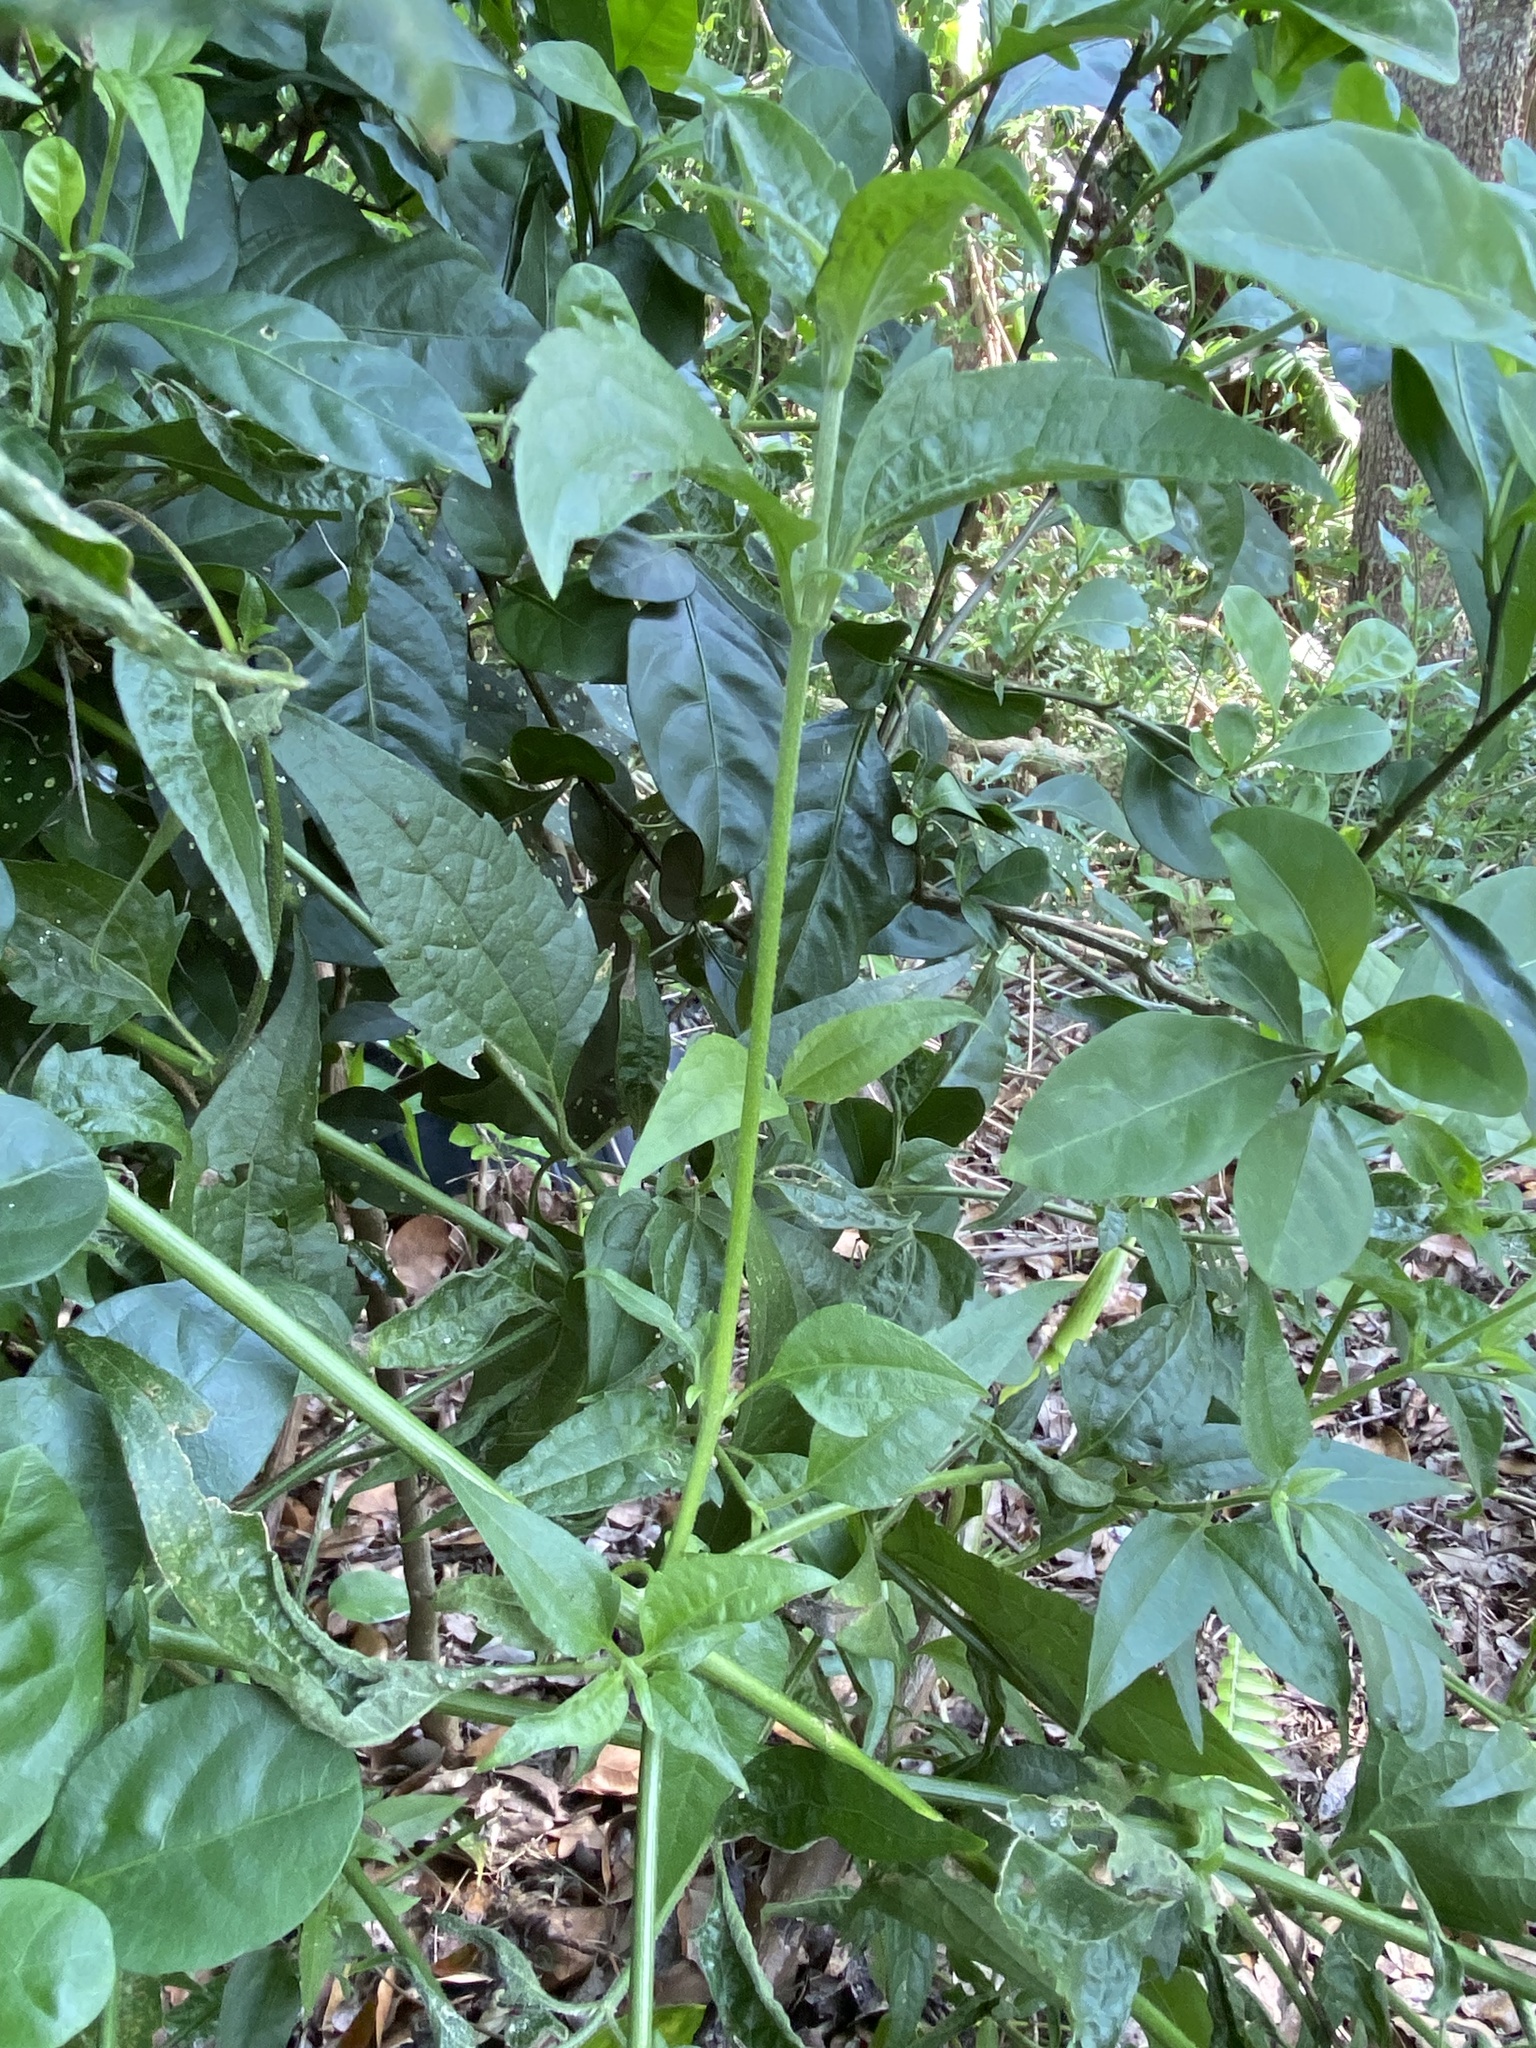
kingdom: Plantae
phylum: Tracheophyta
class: Magnoliopsida
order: Asterales
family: Asteraceae
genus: Chromolaena
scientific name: Chromolaena odorata
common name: Siamweed
